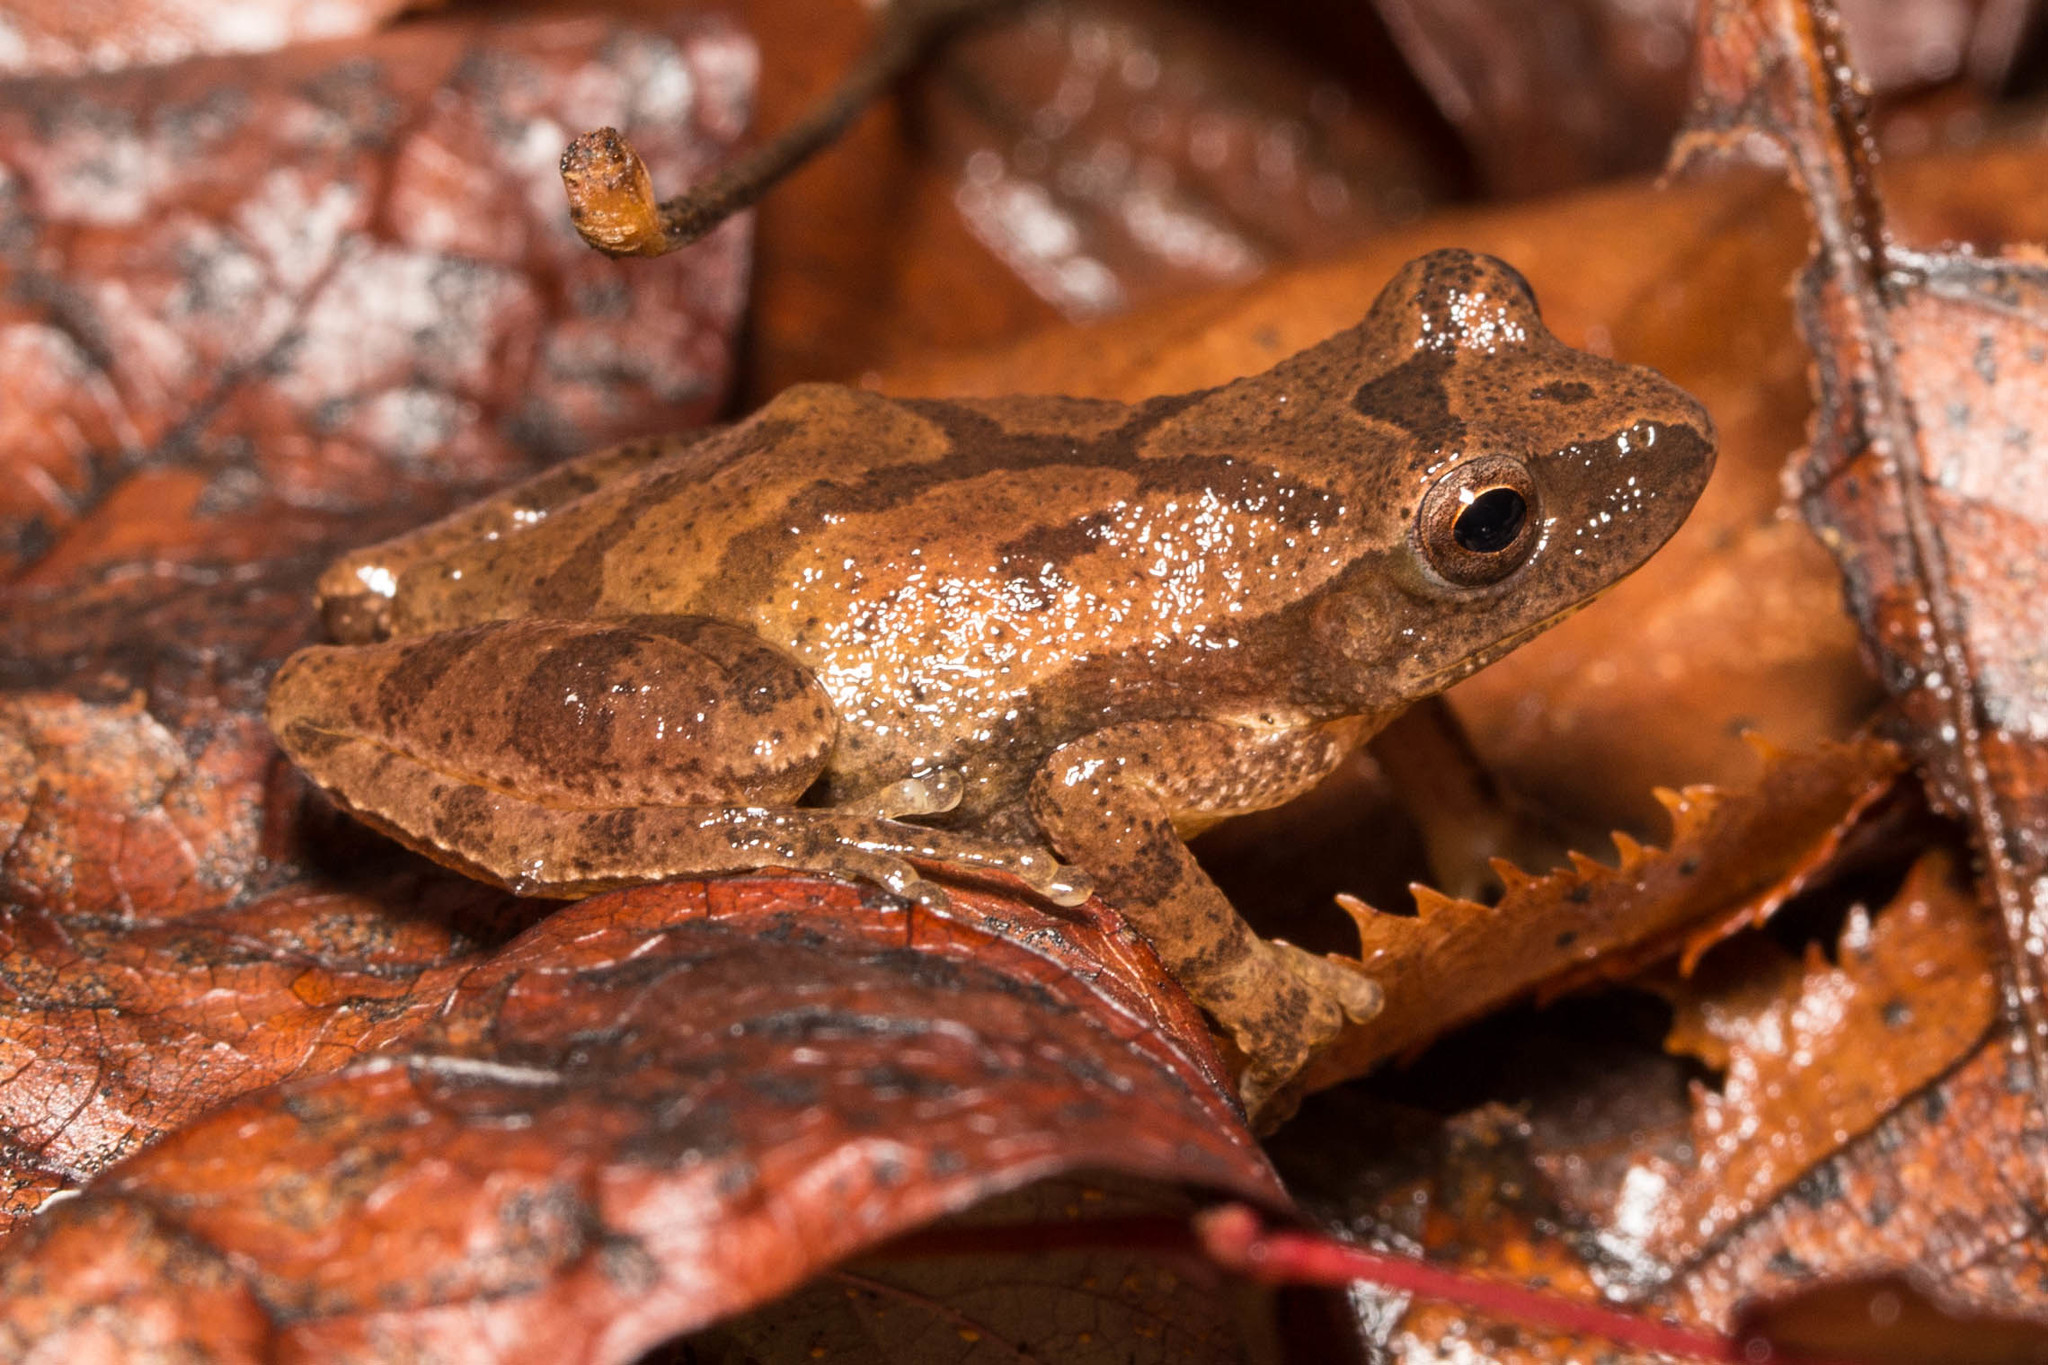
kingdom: Animalia
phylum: Chordata
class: Amphibia
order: Anura
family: Hylidae
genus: Pseudacris
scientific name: Pseudacris crucifer
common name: Spring peeper
